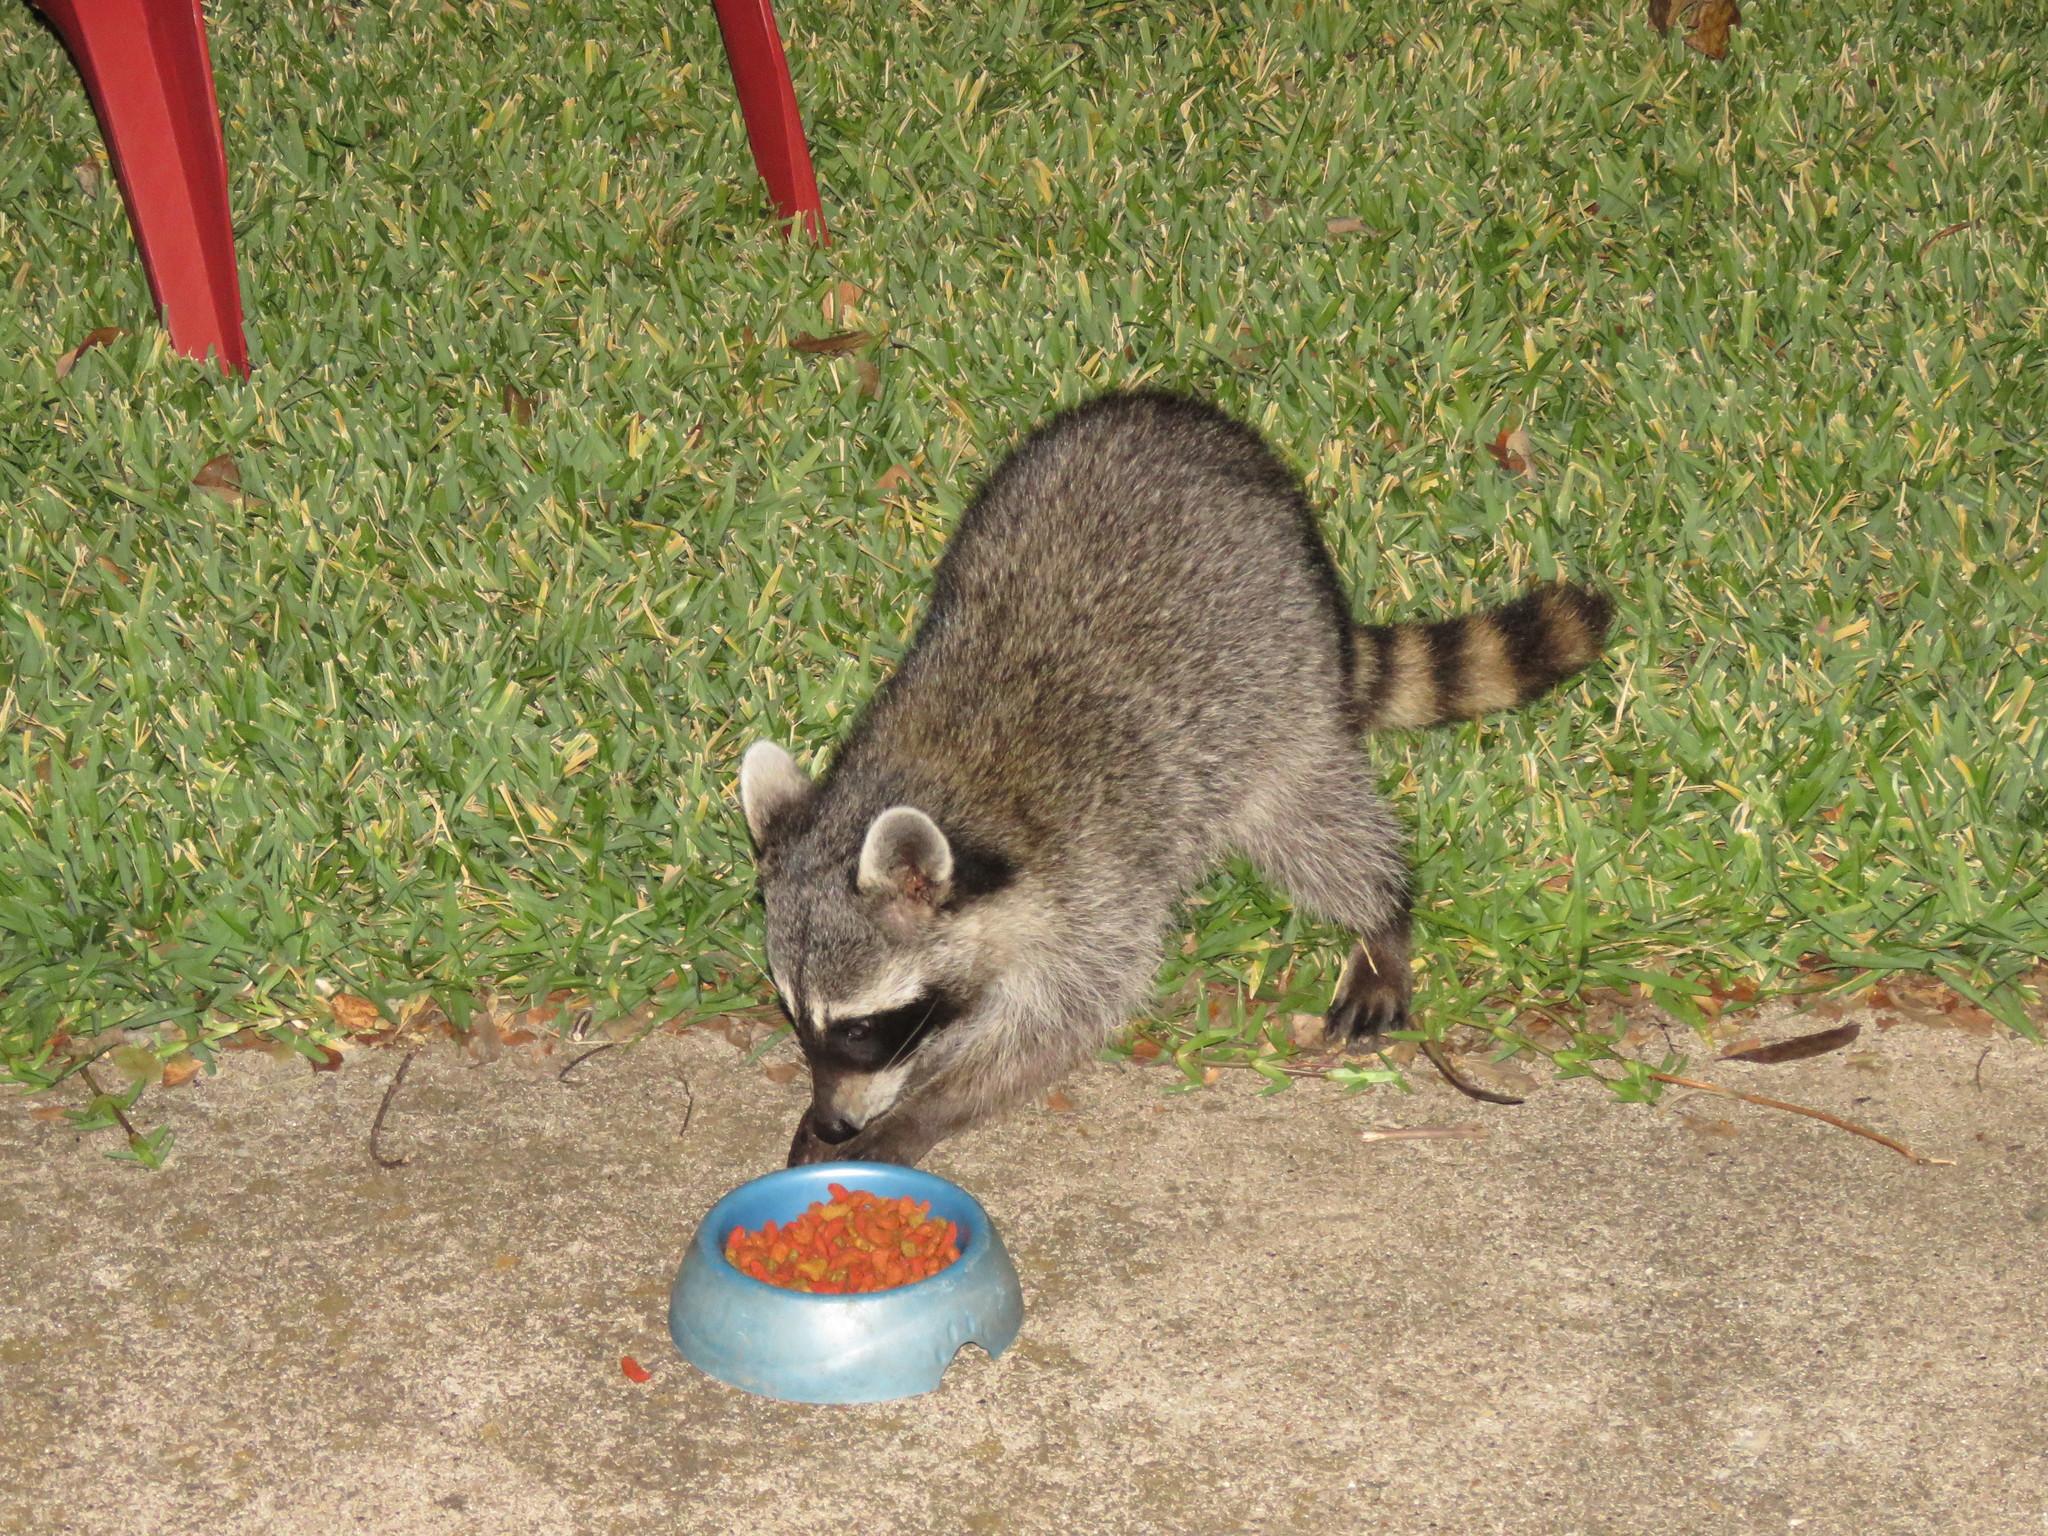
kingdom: Animalia
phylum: Chordata
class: Mammalia
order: Carnivora
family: Procyonidae
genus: Procyon
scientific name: Procyon lotor
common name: Raccoon
